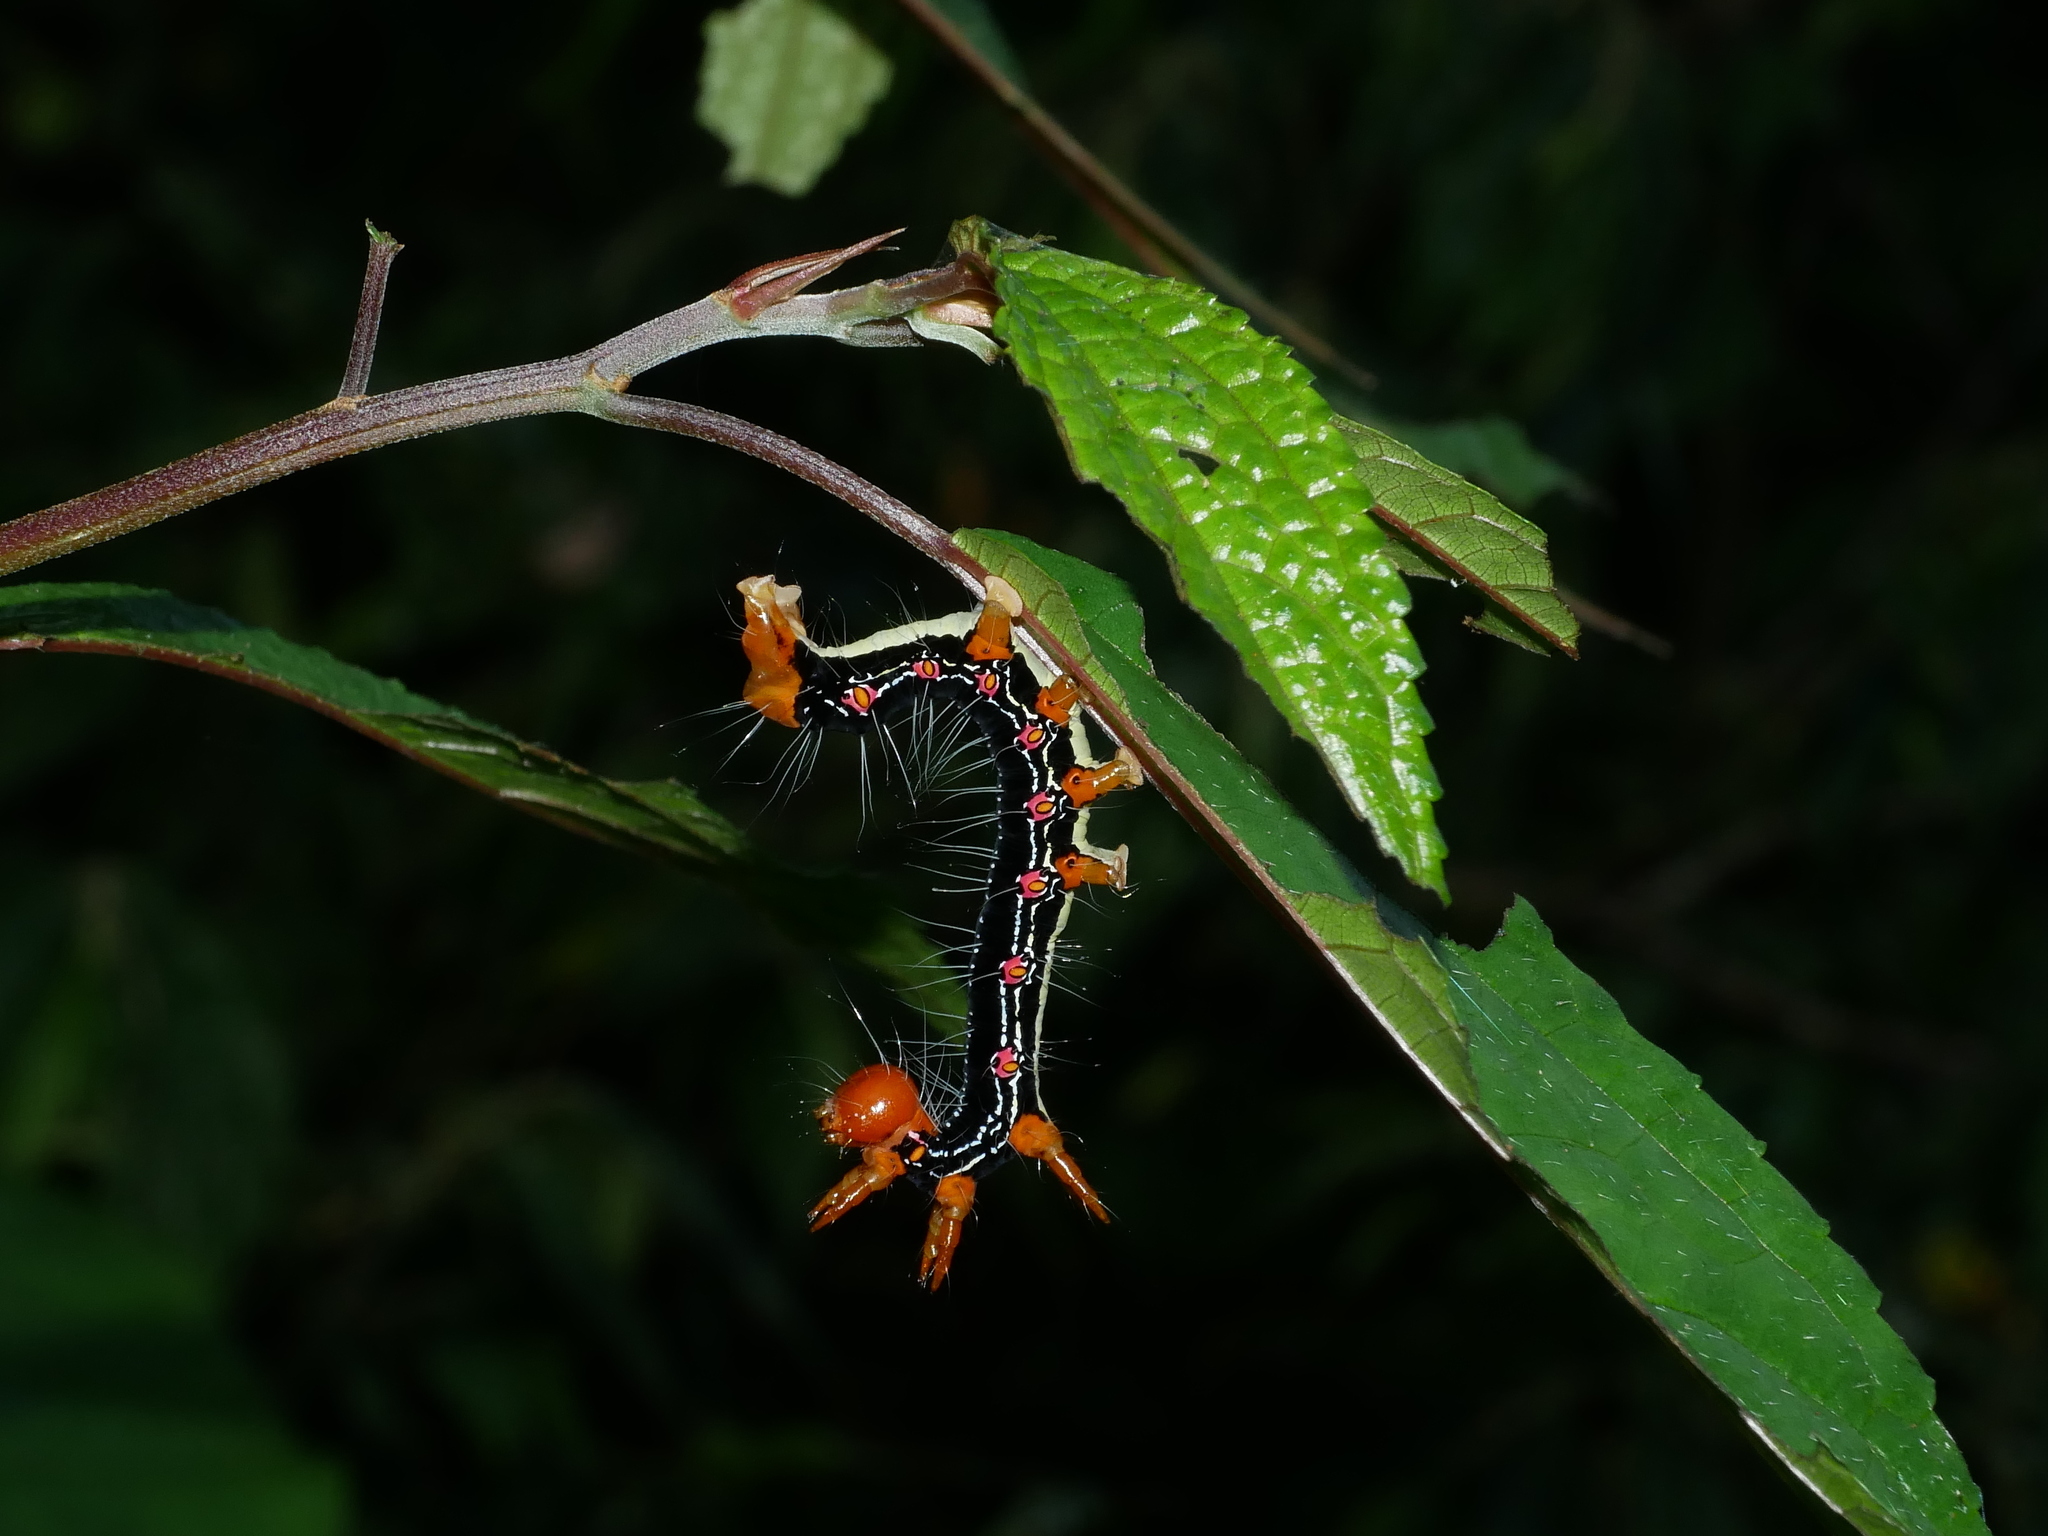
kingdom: Animalia
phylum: Arthropoda
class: Insecta
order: Lepidoptera
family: Erebidae
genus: Arcte
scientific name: Arcte coerula
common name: Ramie moth
